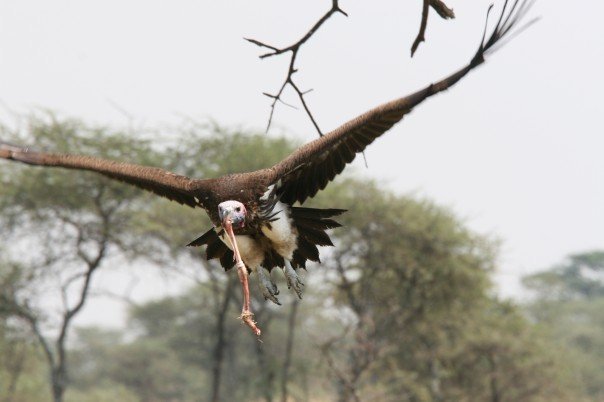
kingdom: Animalia
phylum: Chordata
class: Aves
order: Accipitriformes
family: Accipitridae
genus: Torgos
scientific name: Torgos tracheliotos
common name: Lappet-faced vulture
